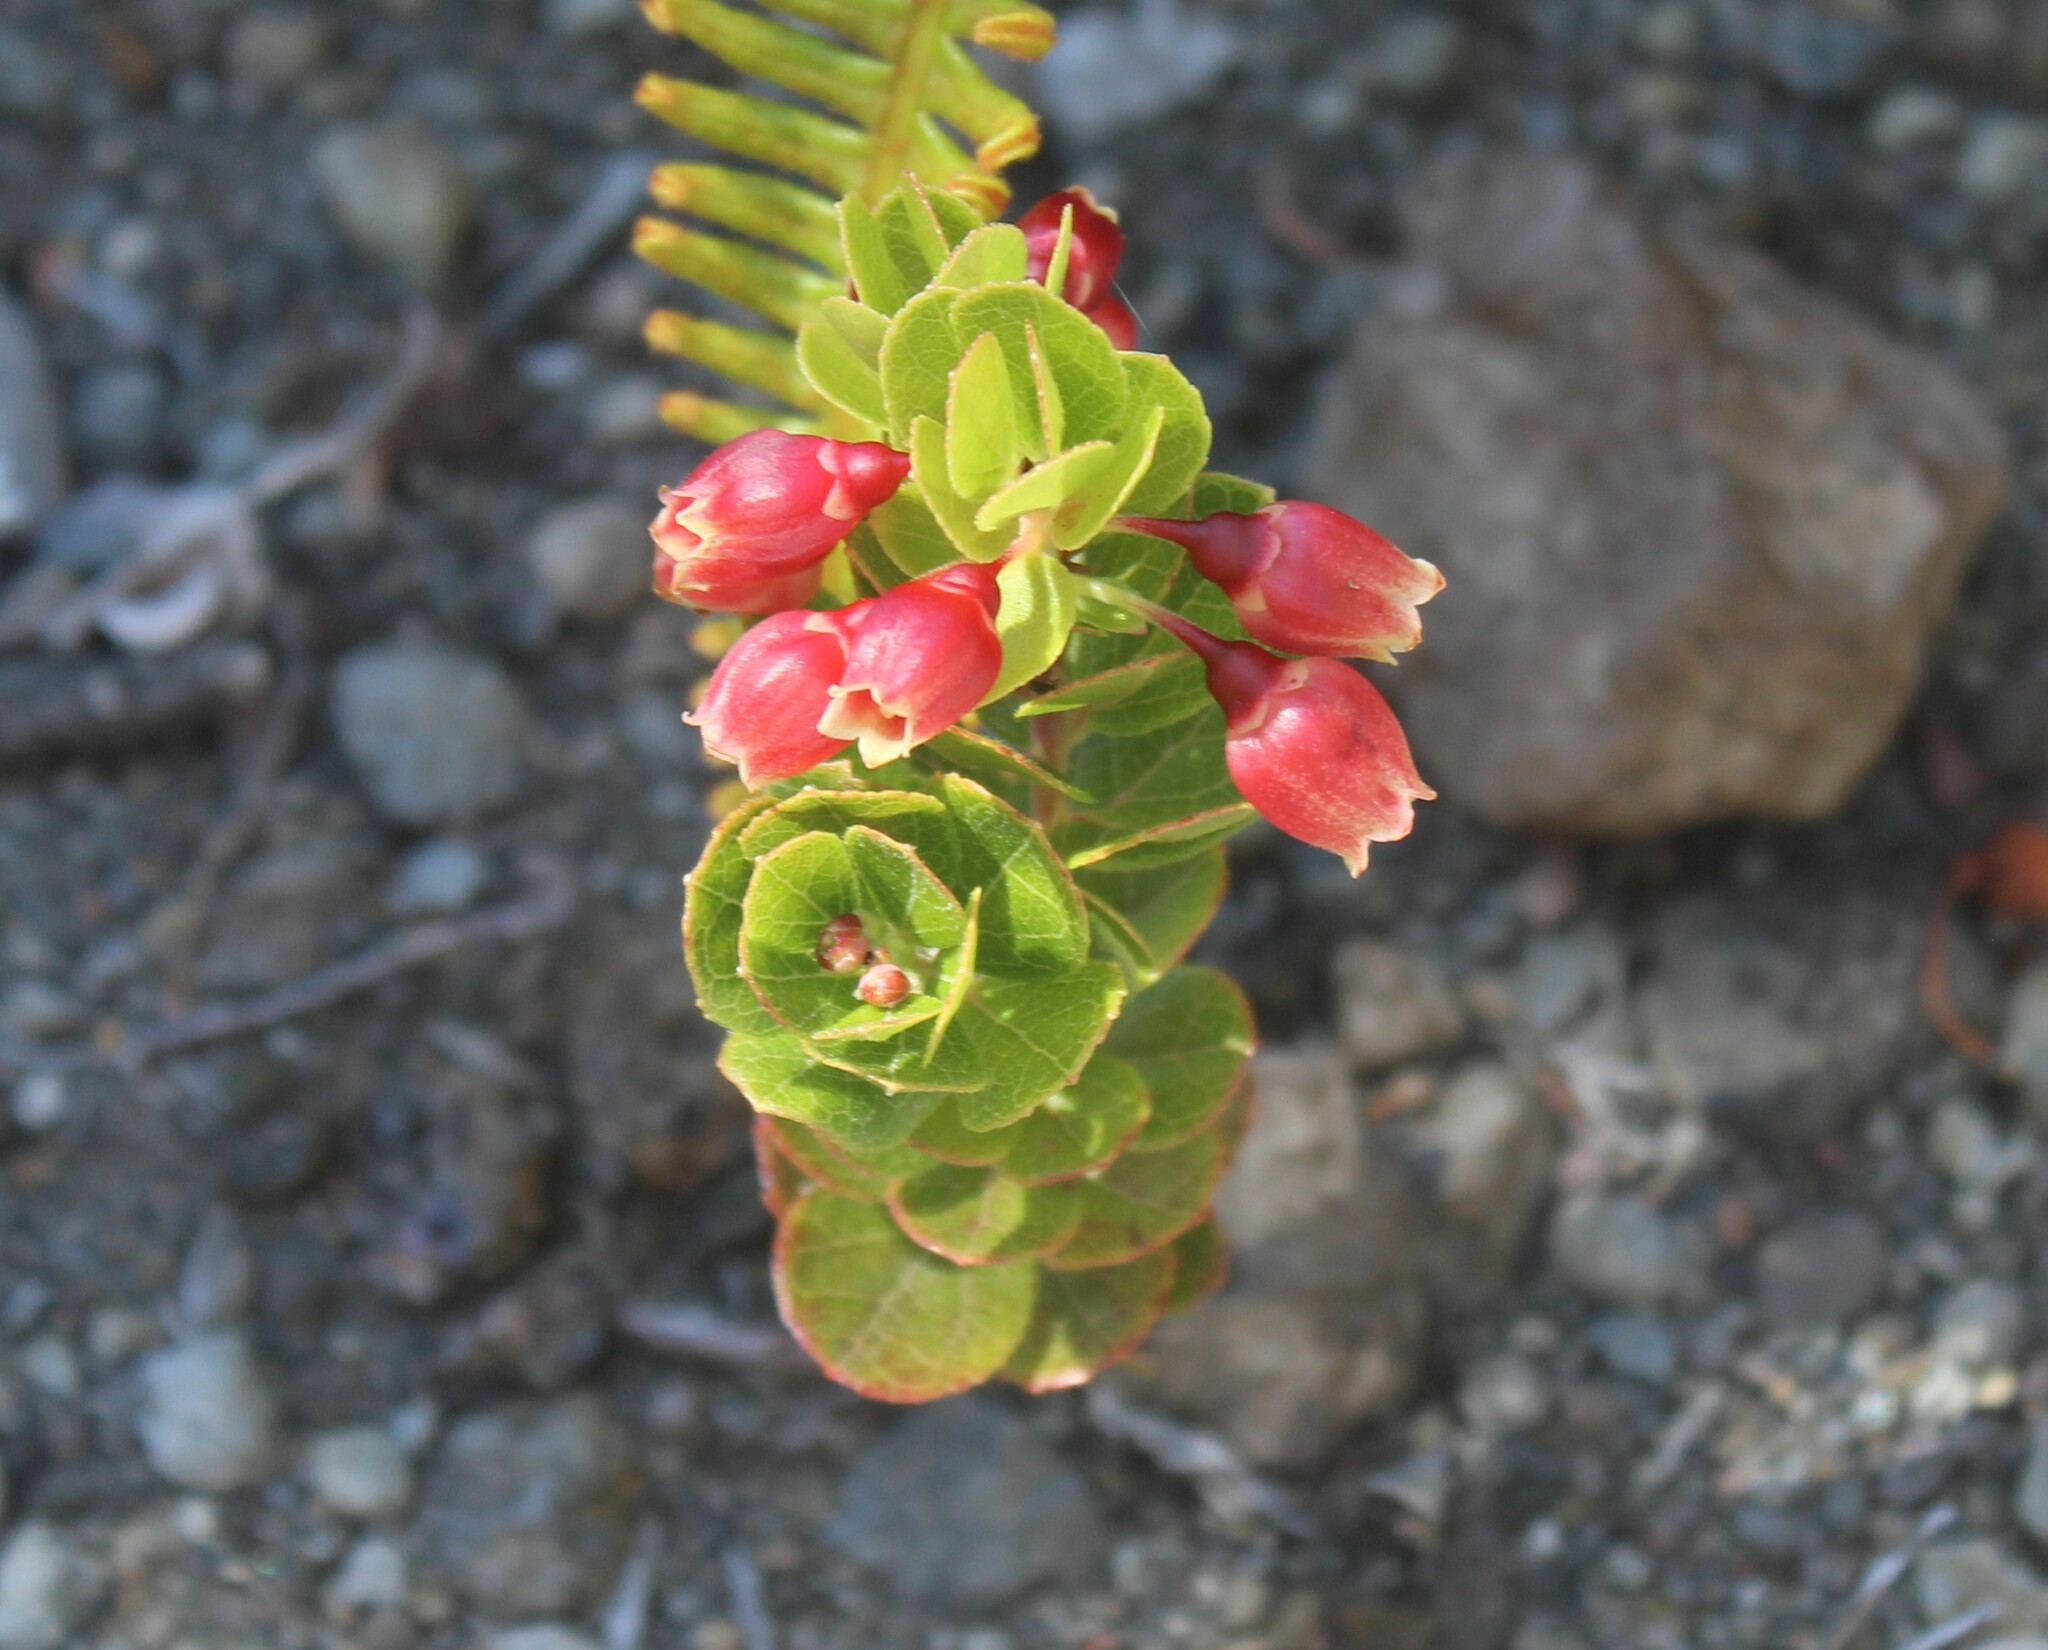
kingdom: Plantae
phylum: Tracheophyta
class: Magnoliopsida
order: Ericales
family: Ericaceae
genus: Vaccinium
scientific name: Vaccinium reticulatum
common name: Ohelo
